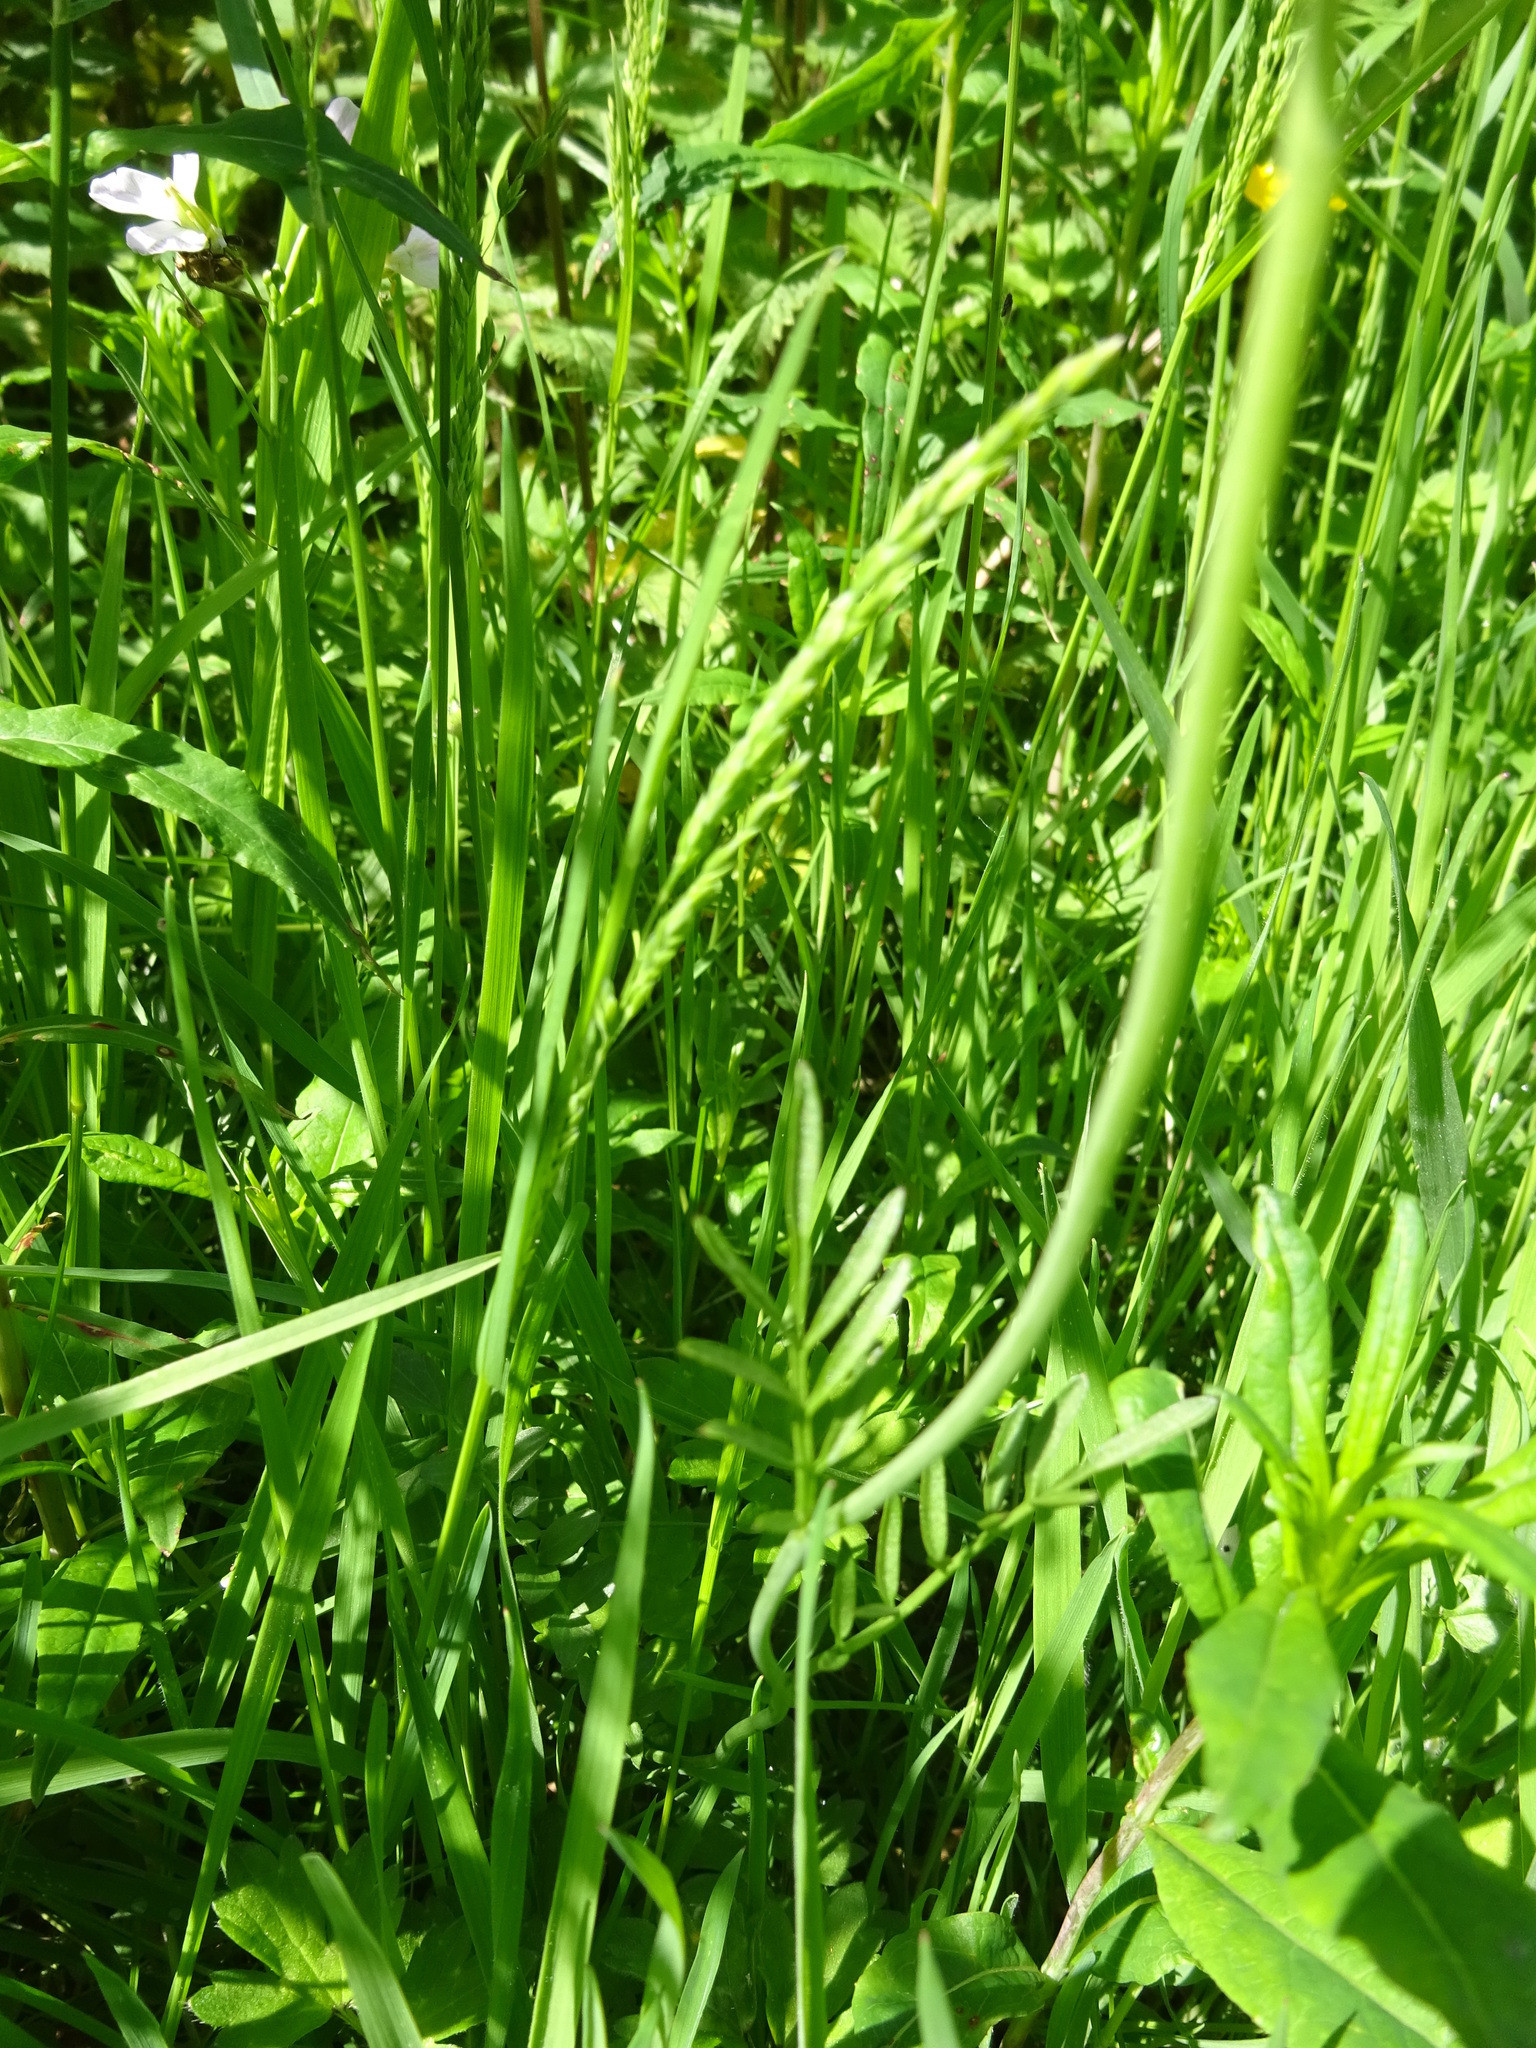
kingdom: Plantae
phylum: Tracheophyta
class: Magnoliopsida
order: Brassicales
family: Brassicaceae
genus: Cardamine
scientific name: Cardamine pratensis
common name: Cuckoo flower
